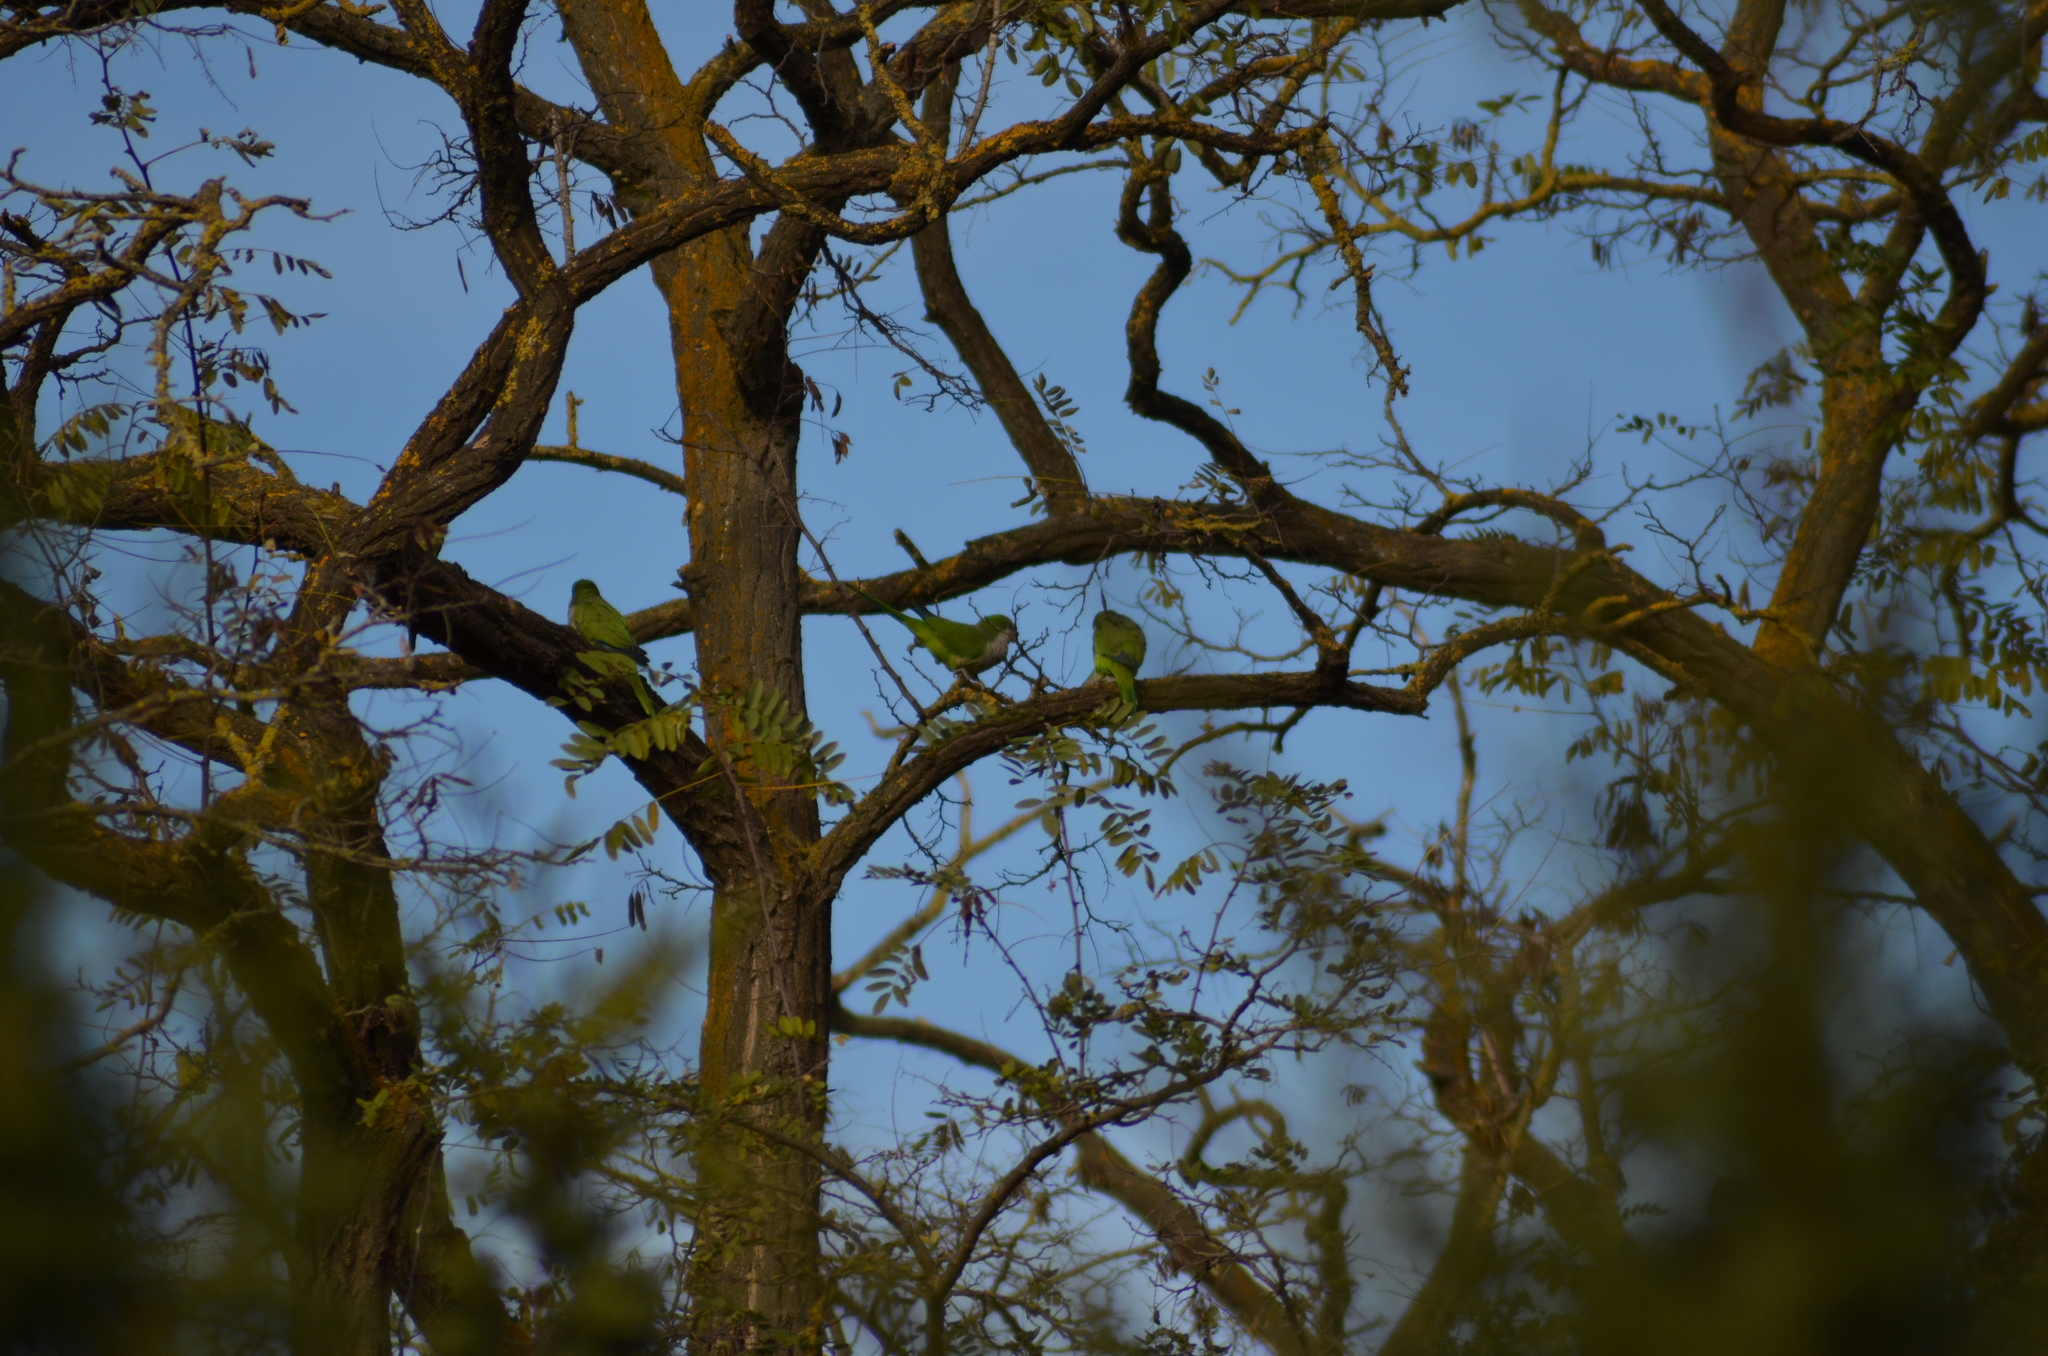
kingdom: Animalia
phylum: Chordata
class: Aves
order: Psittaciformes
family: Psittacidae
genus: Myiopsitta
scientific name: Myiopsitta monachus
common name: Monk parakeet
